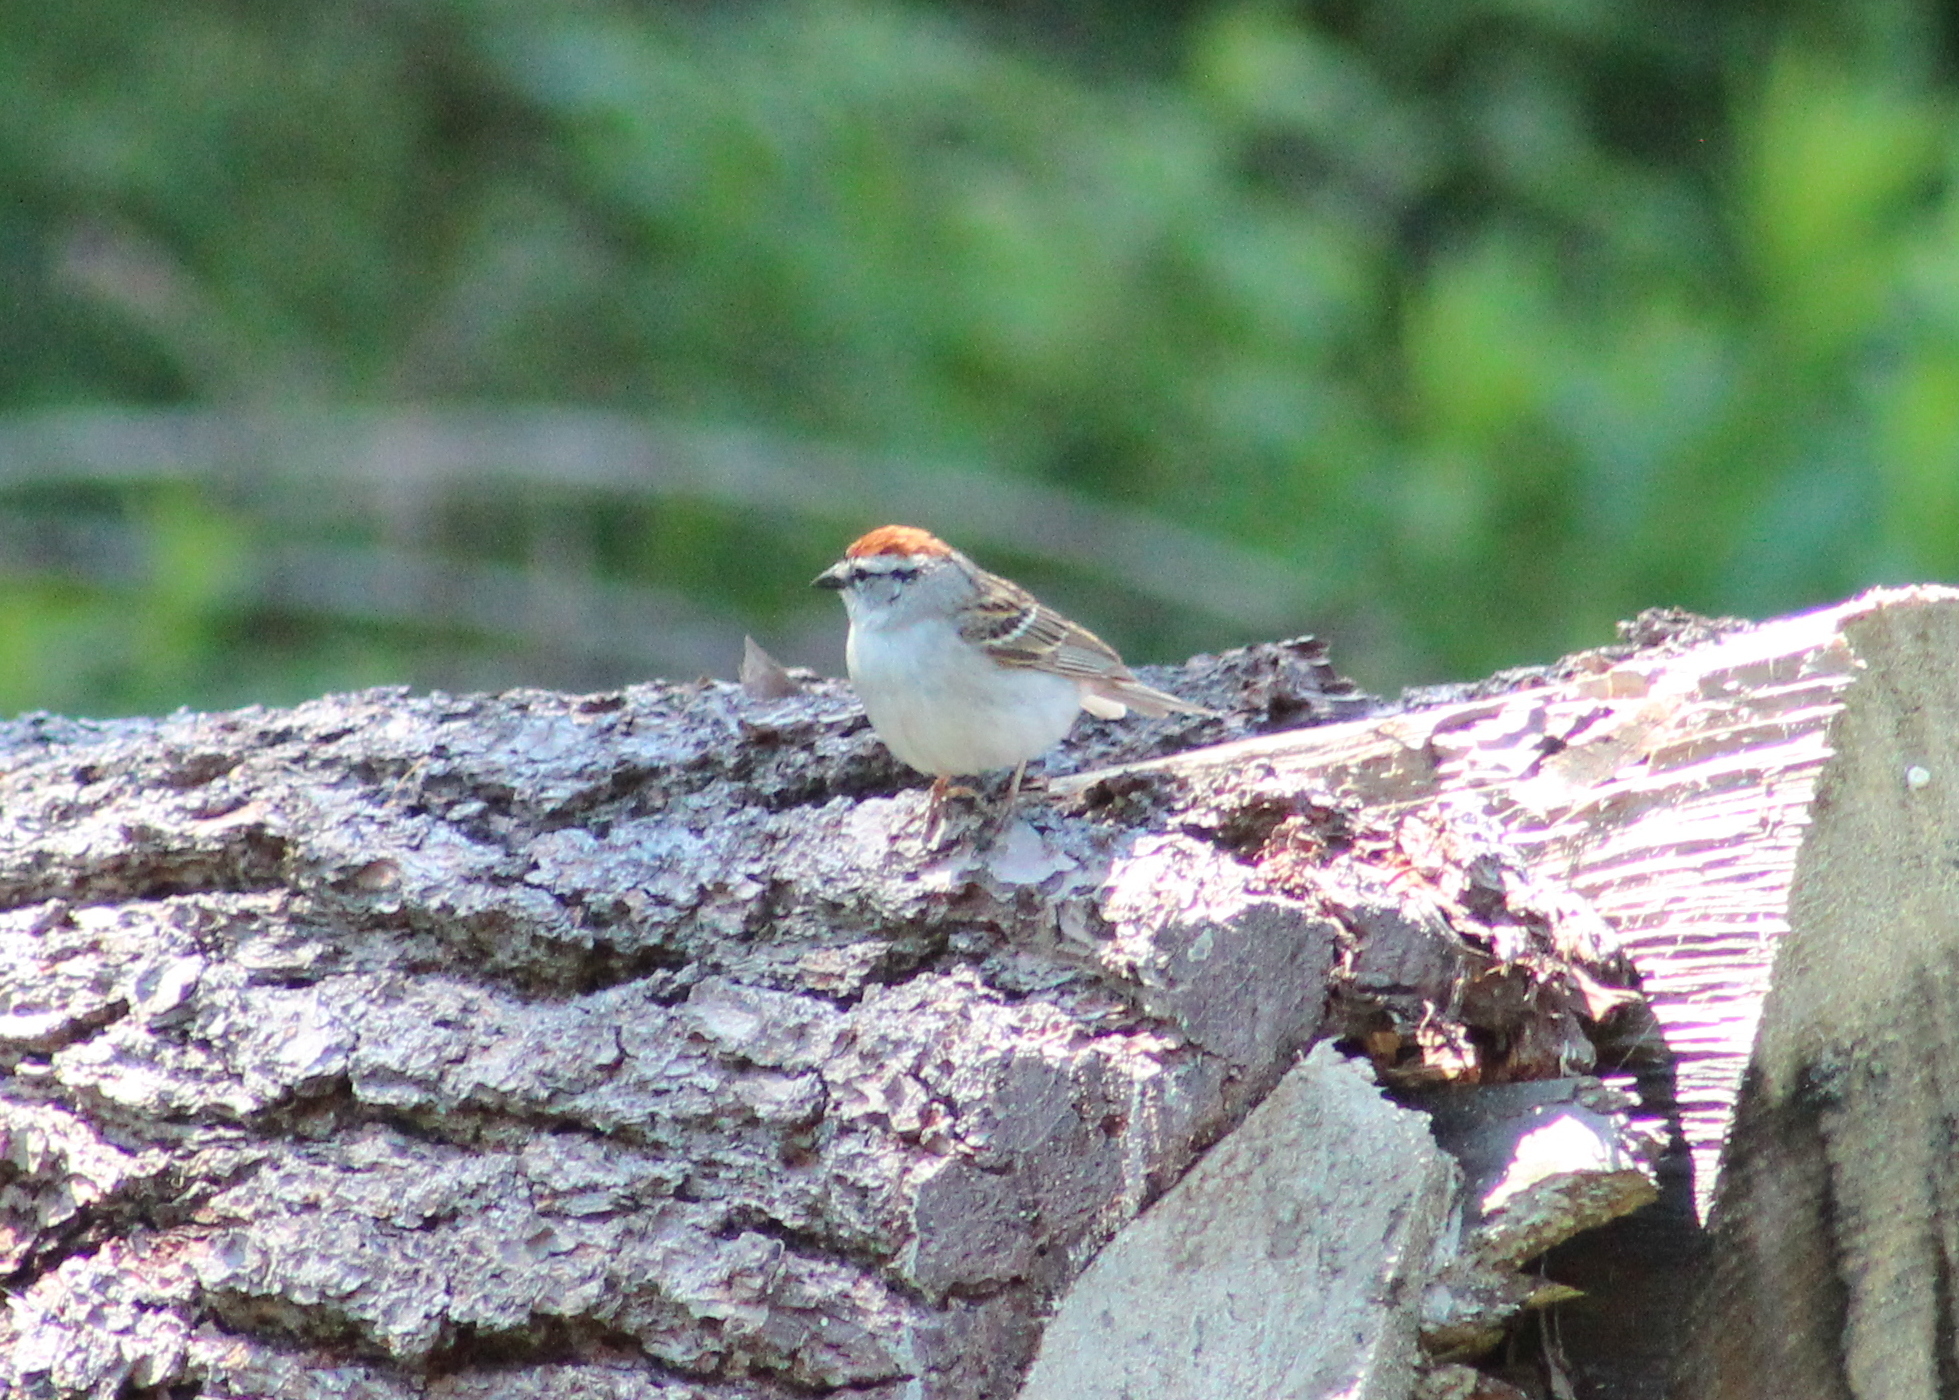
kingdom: Animalia
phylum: Chordata
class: Aves
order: Passeriformes
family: Passerellidae
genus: Spizella
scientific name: Spizella passerina
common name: Chipping sparrow
